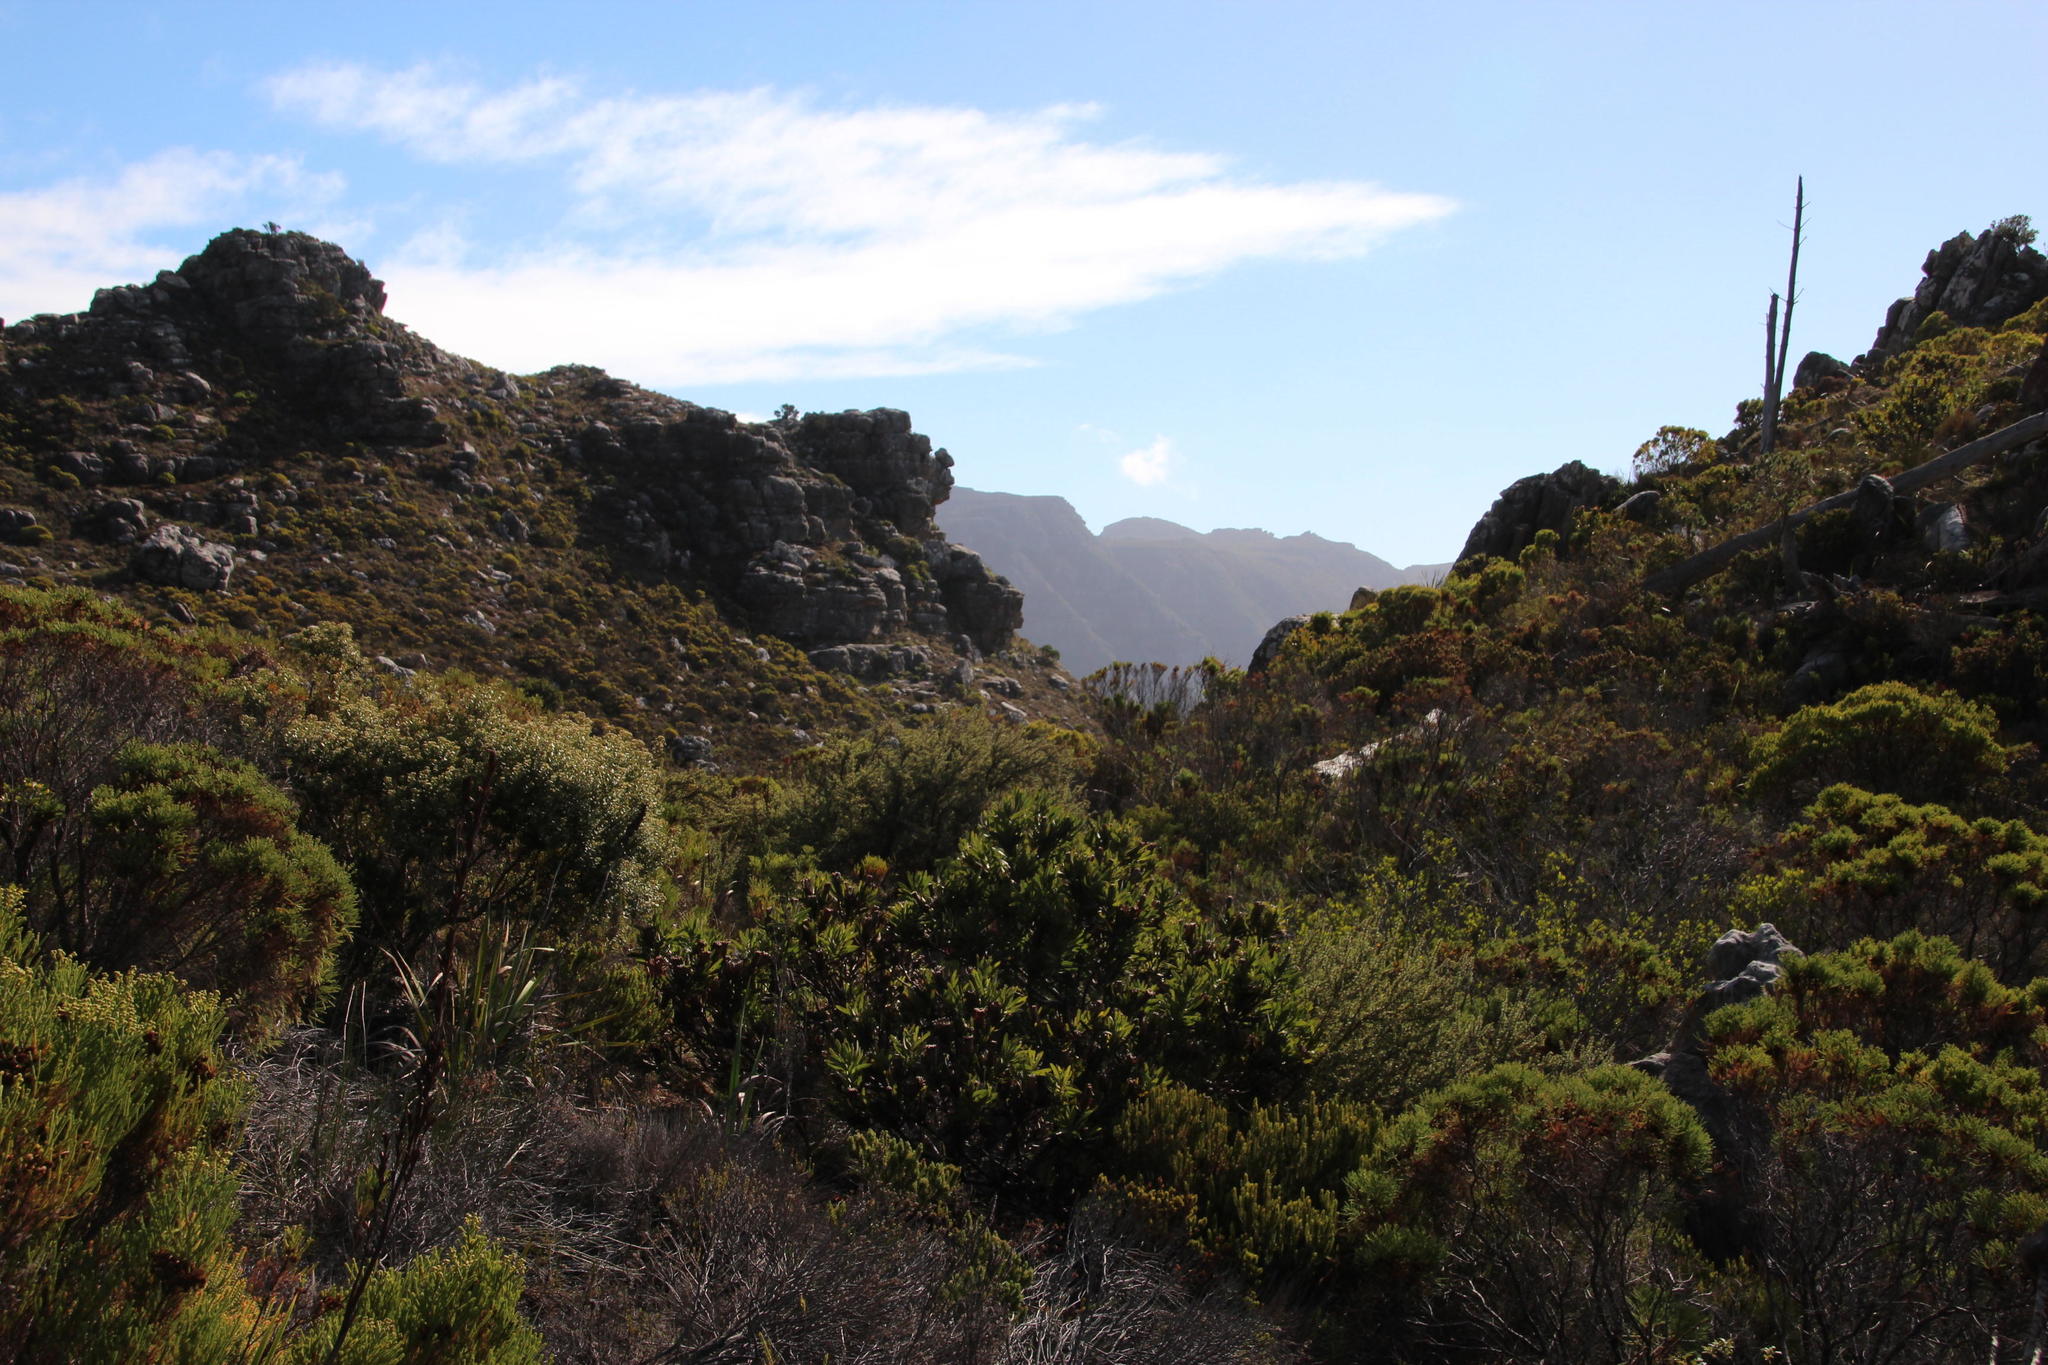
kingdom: Plantae
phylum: Tracheophyta
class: Magnoliopsida
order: Proteales
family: Proteaceae
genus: Protea
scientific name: Protea lepidocarpodendron
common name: Black-bearded protea
